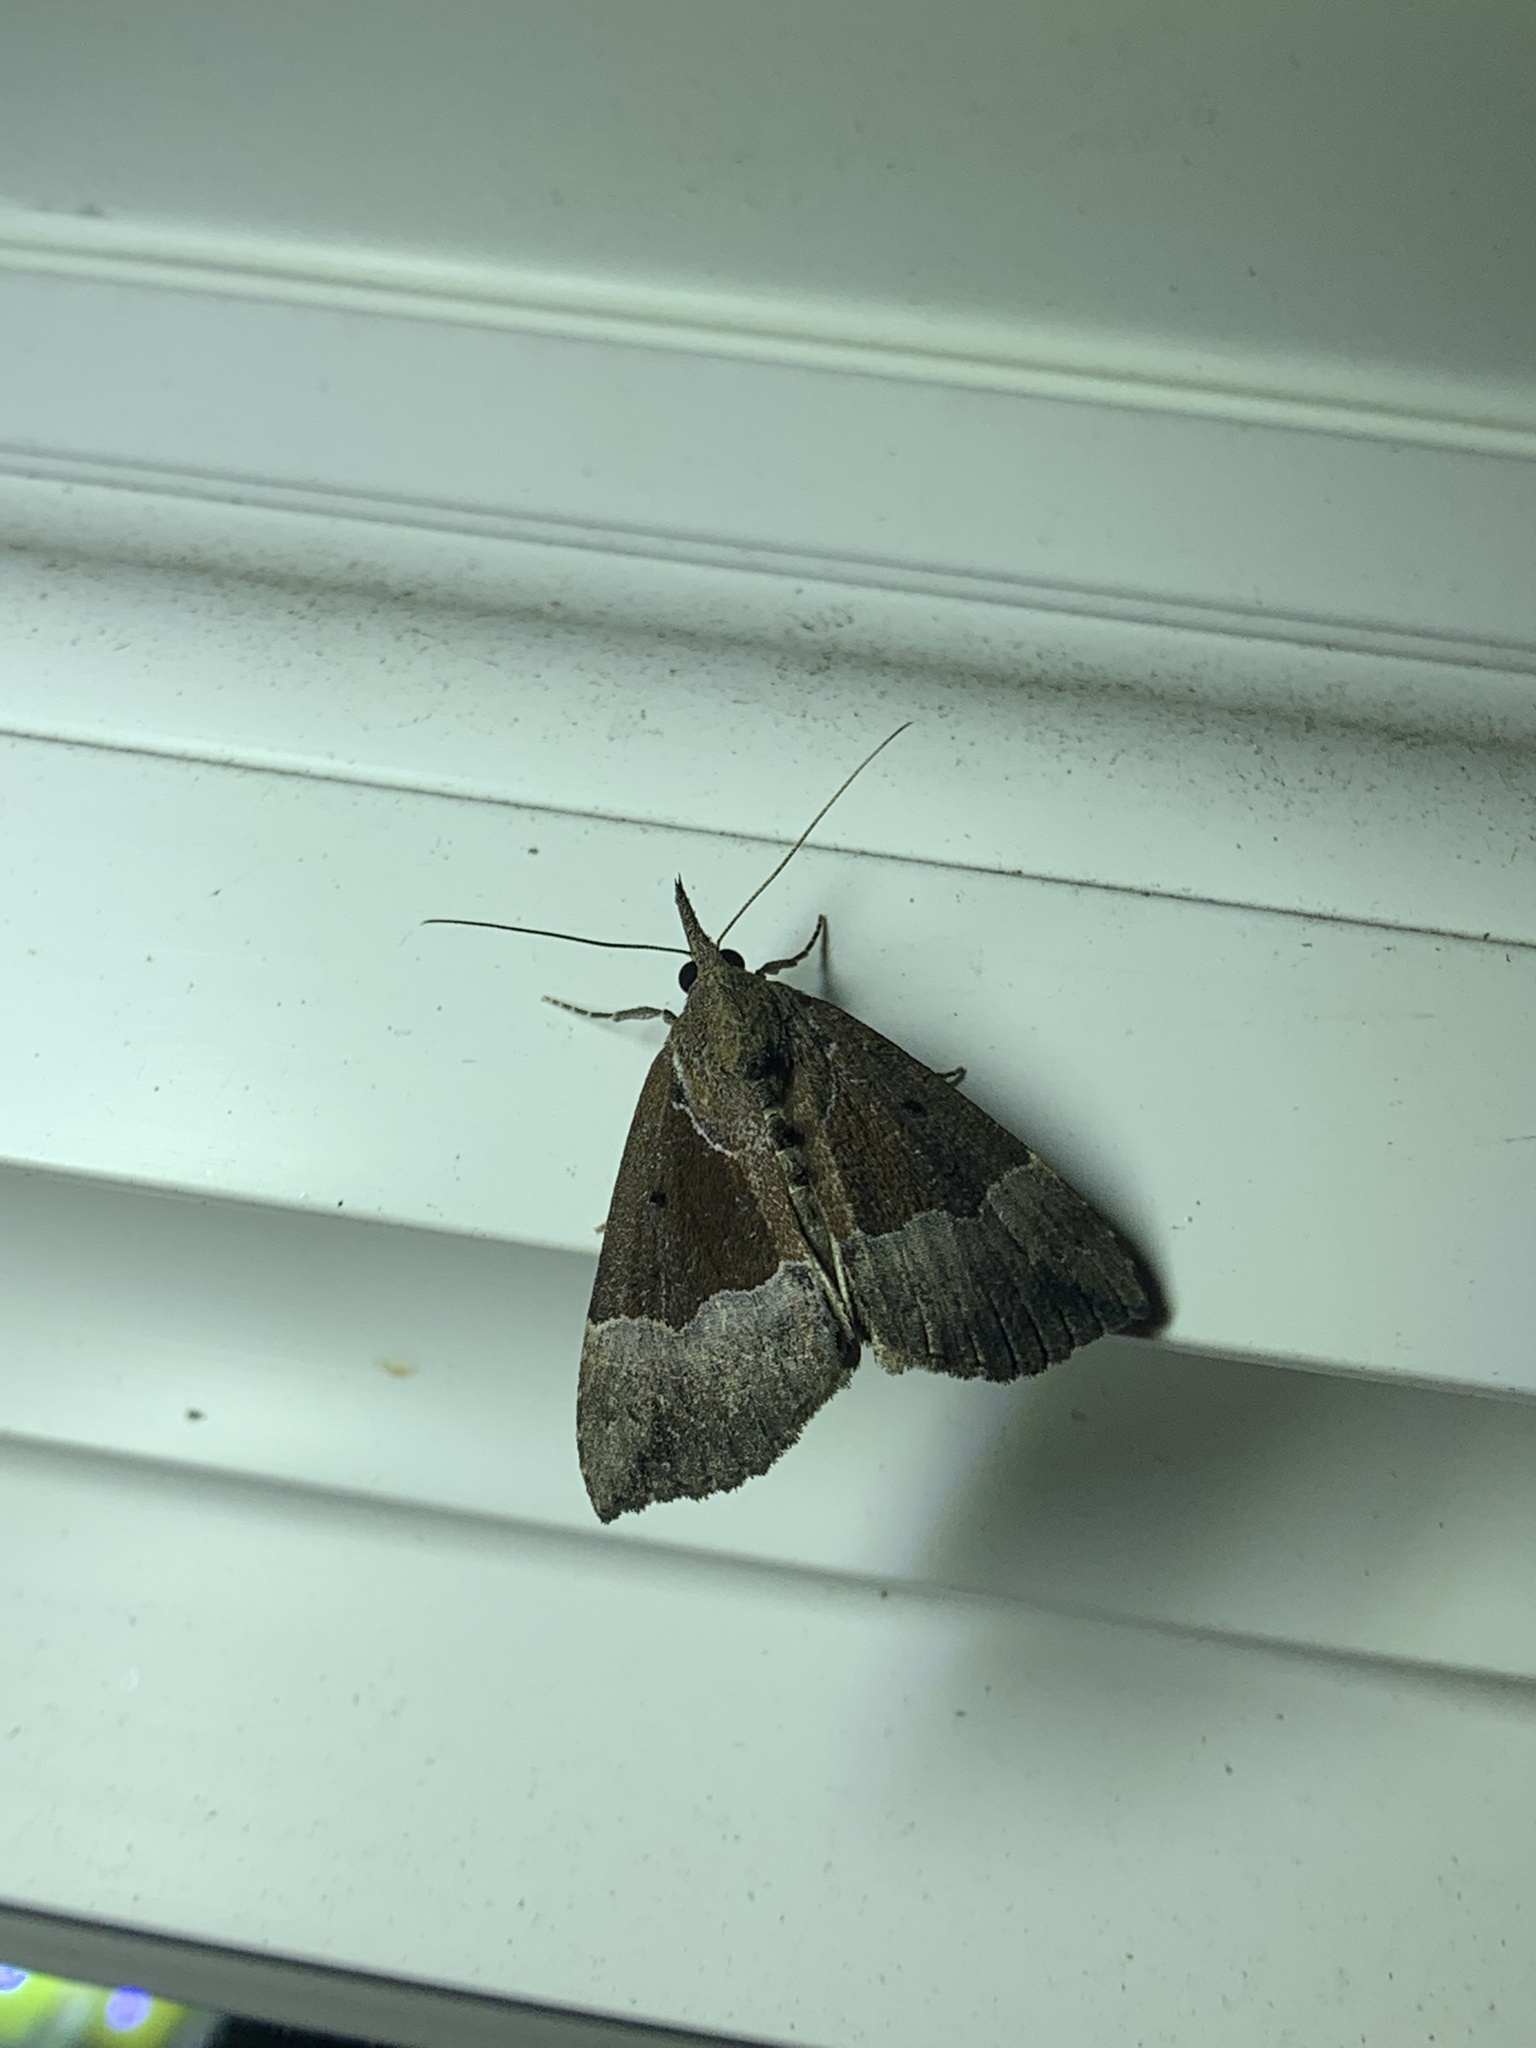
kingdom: Animalia
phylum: Arthropoda
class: Insecta
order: Lepidoptera
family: Erebidae
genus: Hypena
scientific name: Hypena bijugalis
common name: Dimorphic bomolocha moth
